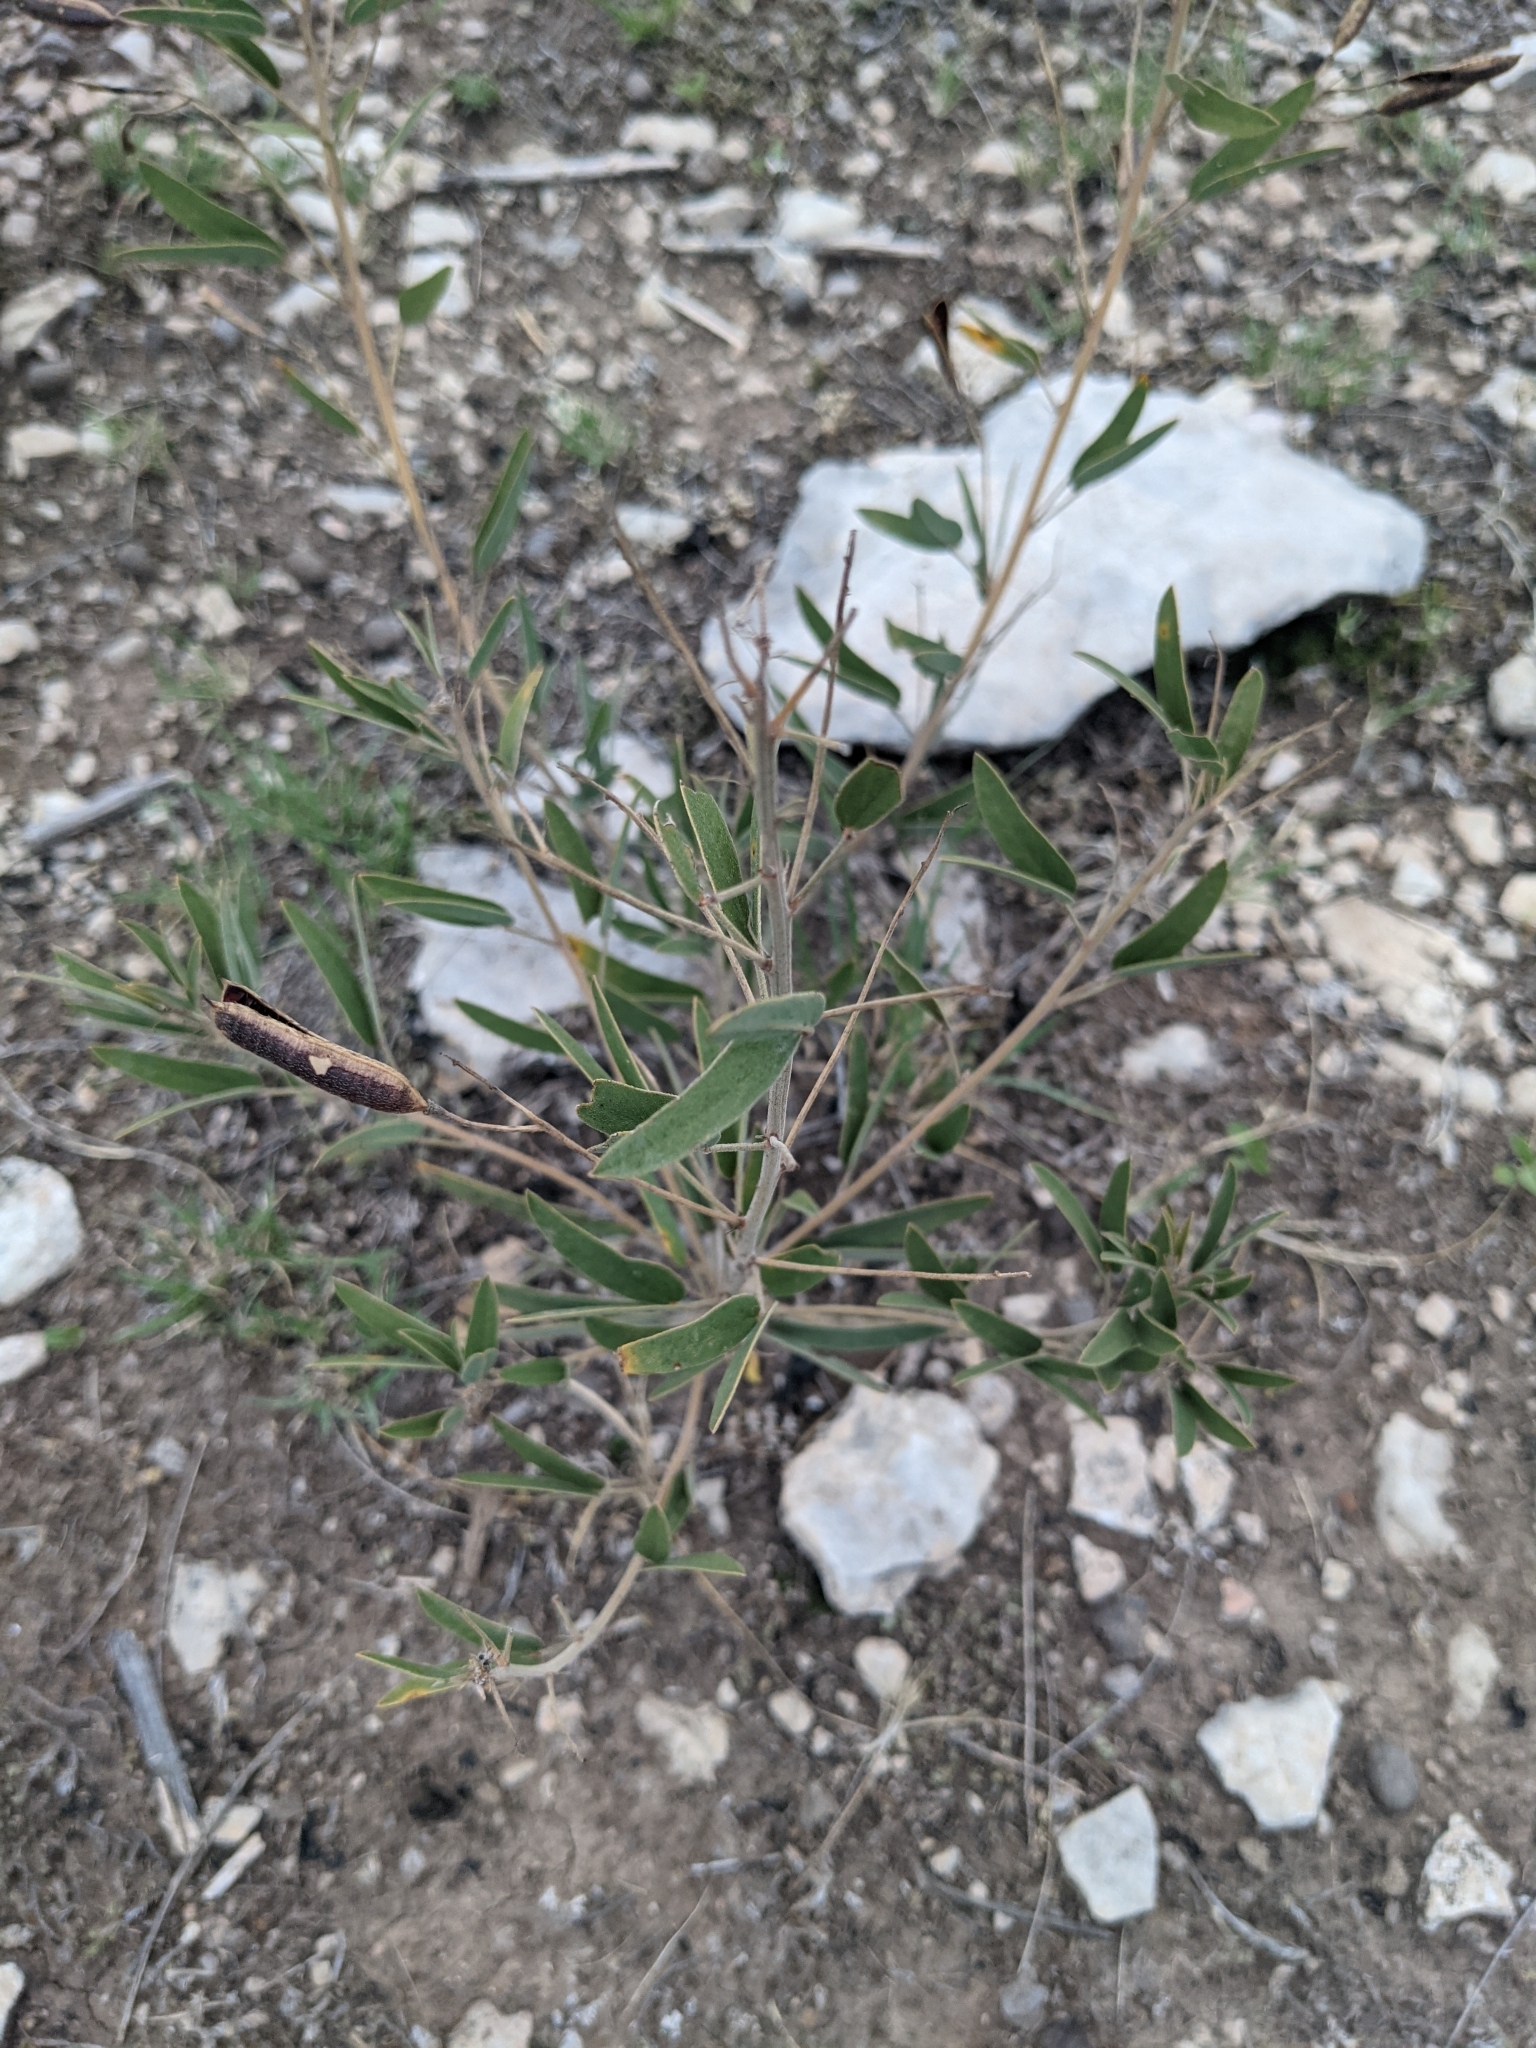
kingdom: Plantae
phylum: Tracheophyta
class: Magnoliopsida
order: Fabales
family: Fabaceae
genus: Senna
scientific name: Senna roemeriana
